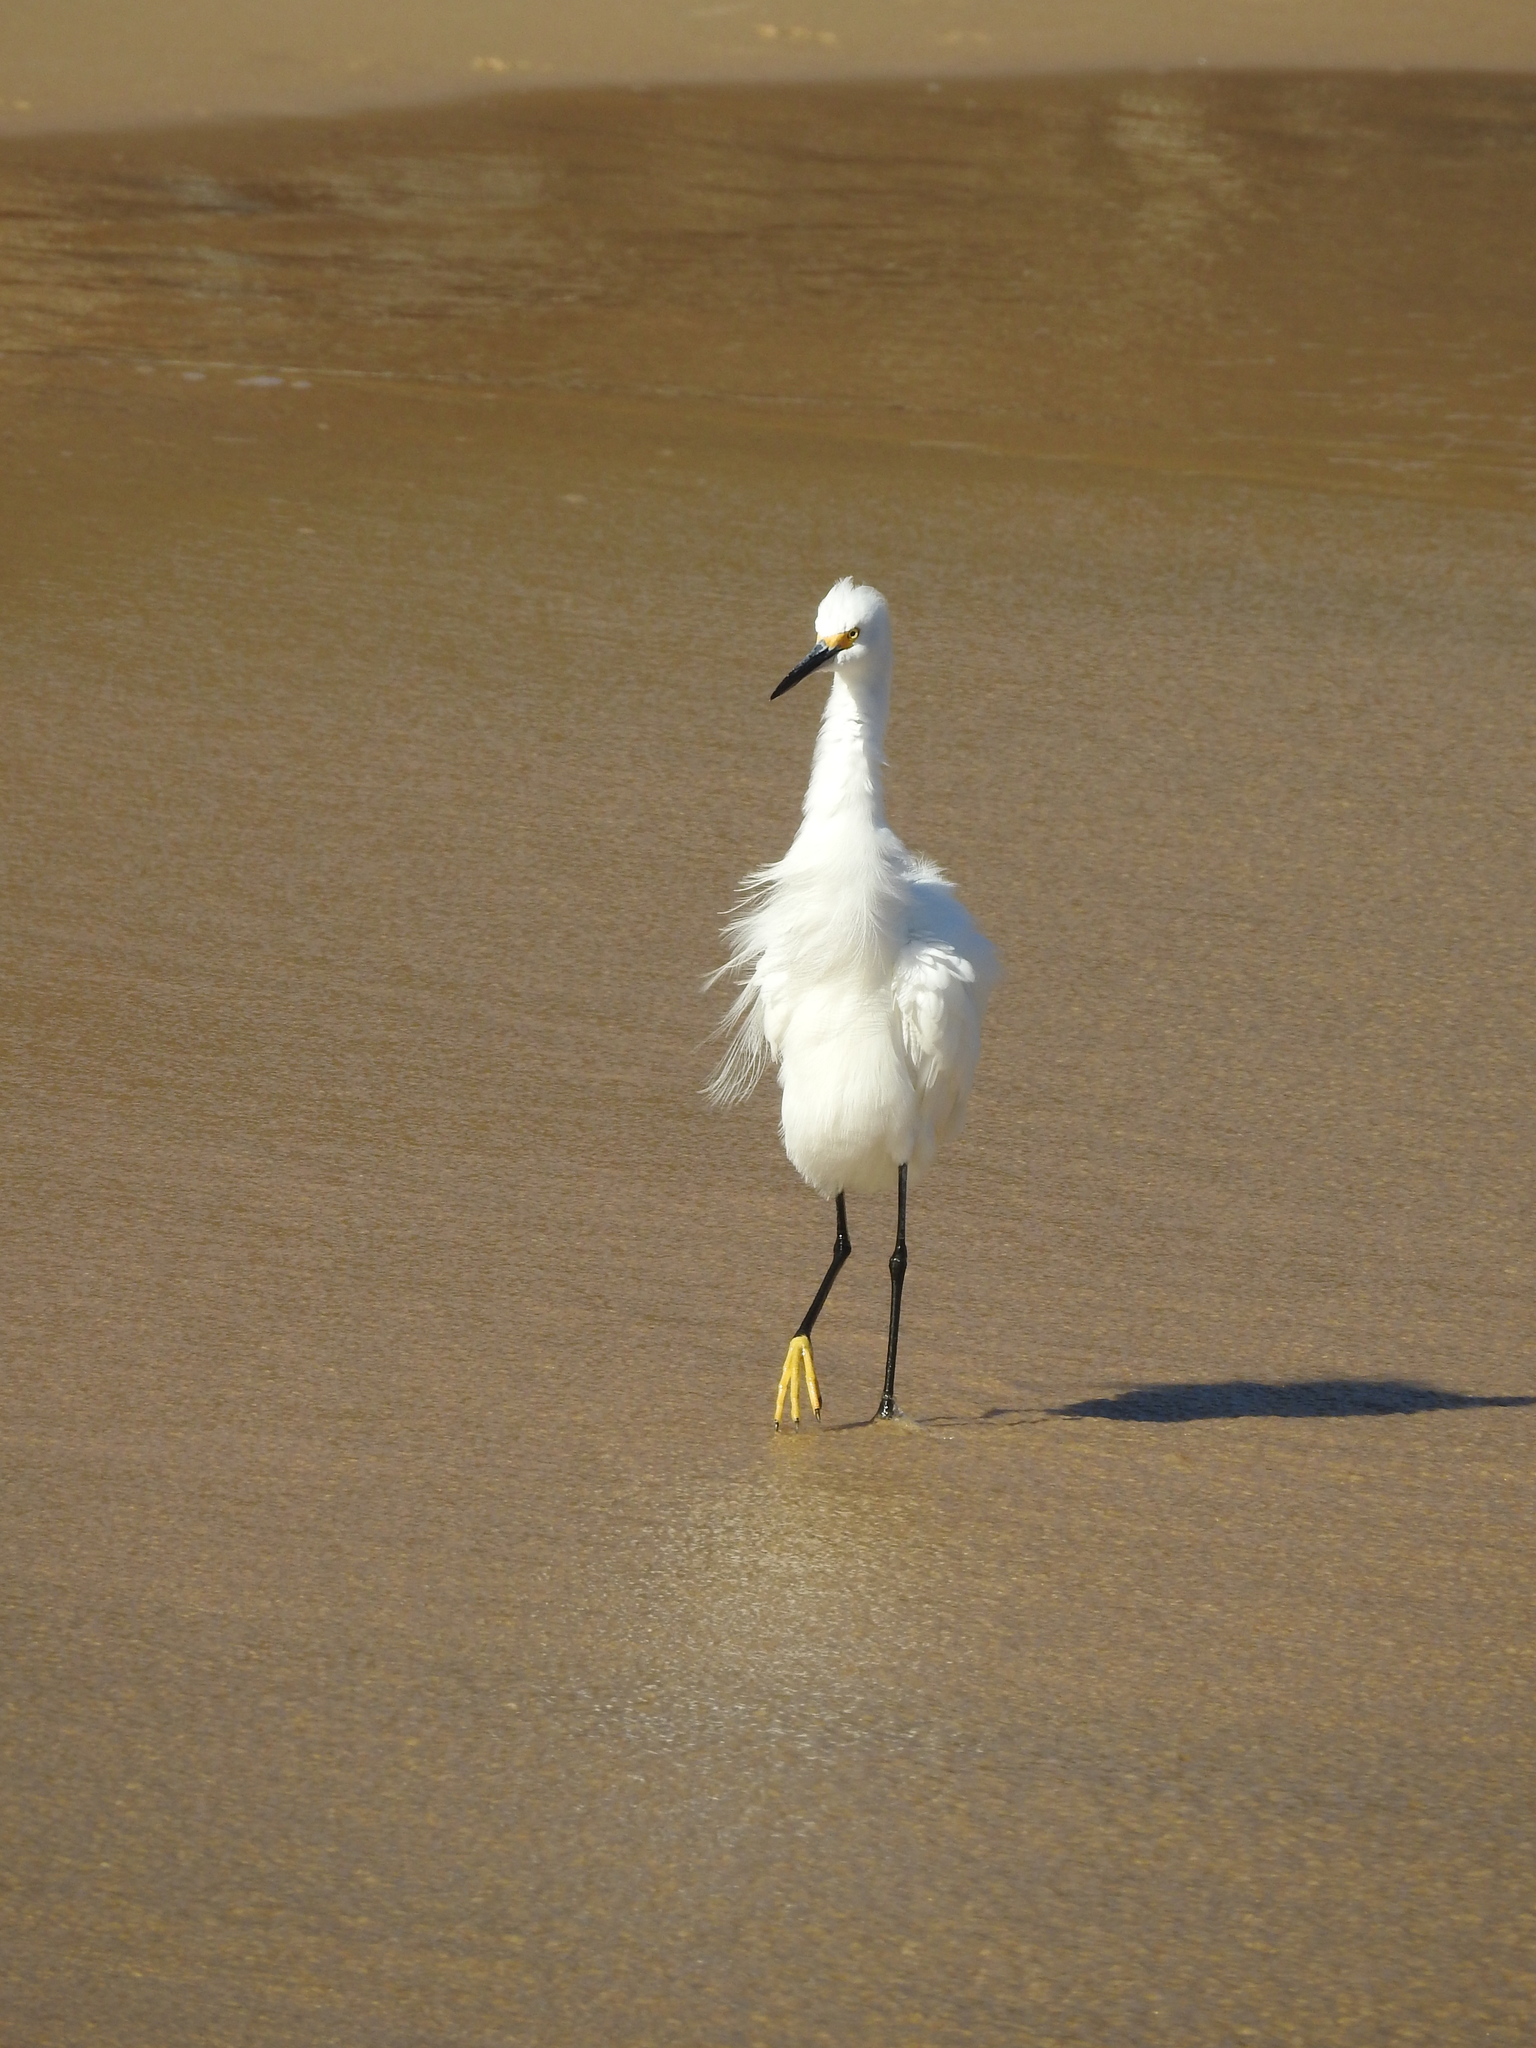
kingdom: Animalia
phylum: Chordata
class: Aves
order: Pelecaniformes
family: Ardeidae
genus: Egretta
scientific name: Egretta thula
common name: Snowy egret
